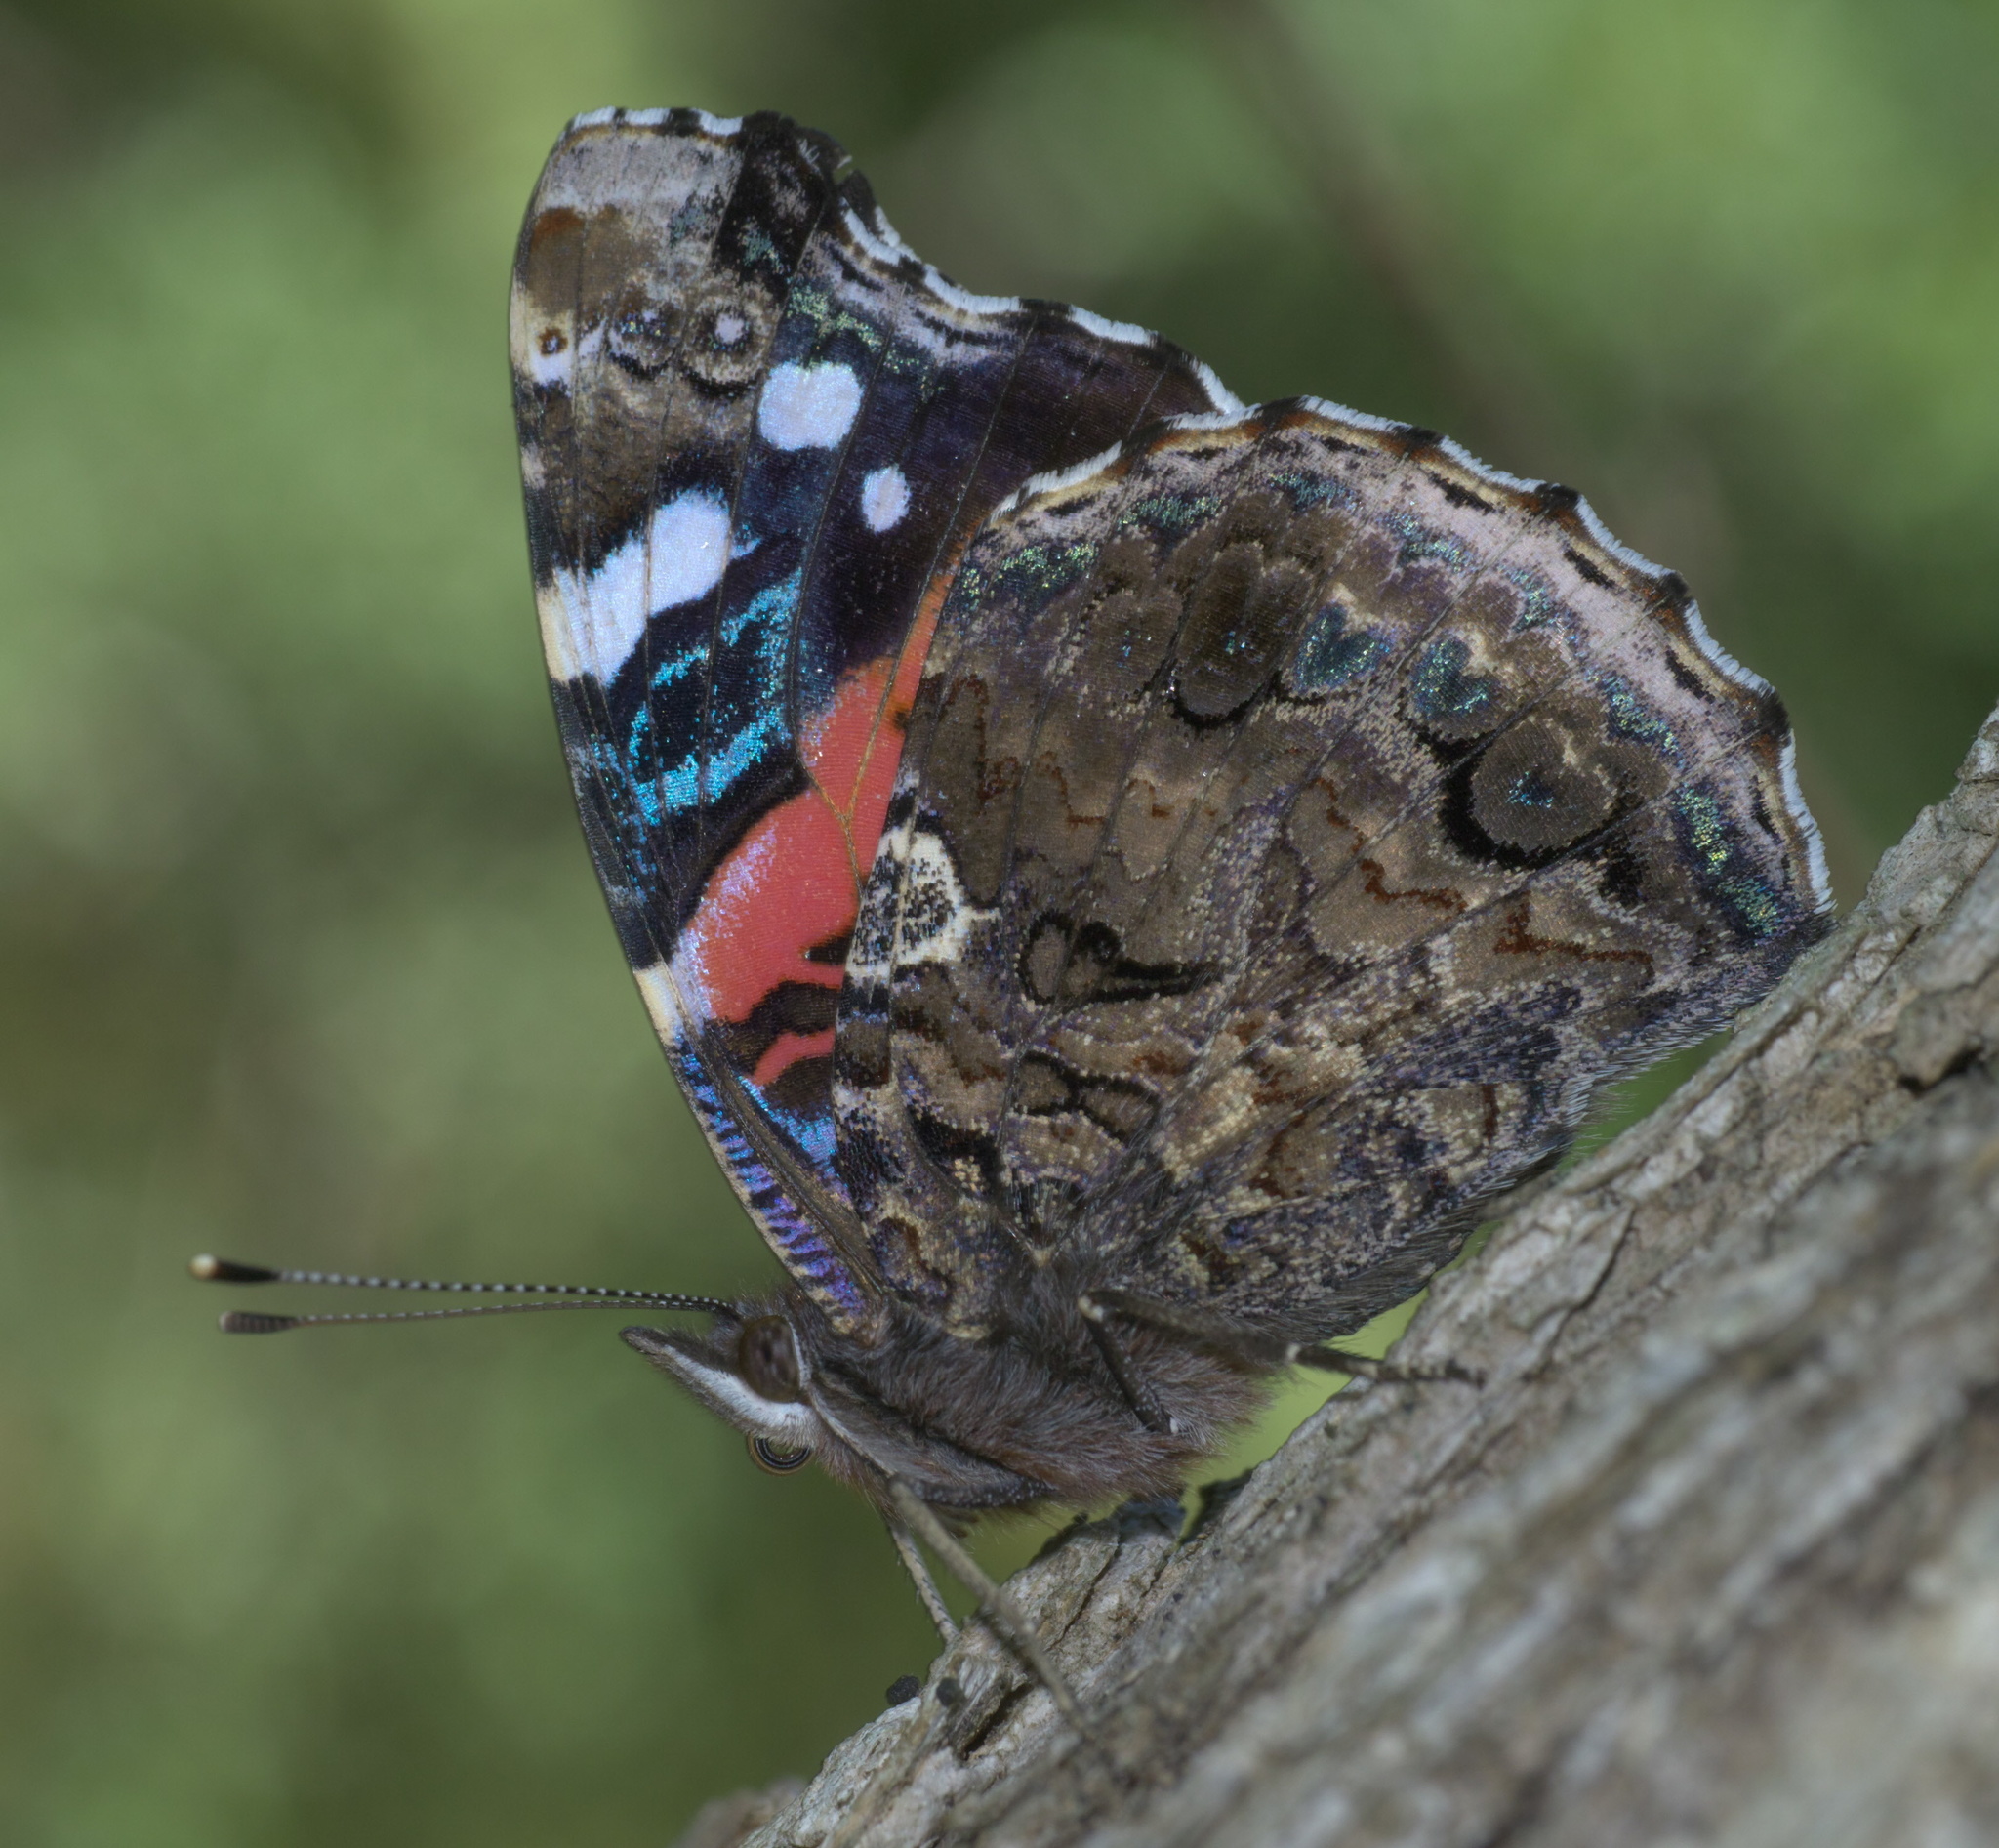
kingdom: Animalia
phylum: Arthropoda
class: Insecta
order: Lepidoptera
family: Nymphalidae
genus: Vanessa
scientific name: Vanessa atalanta
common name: Red admiral
